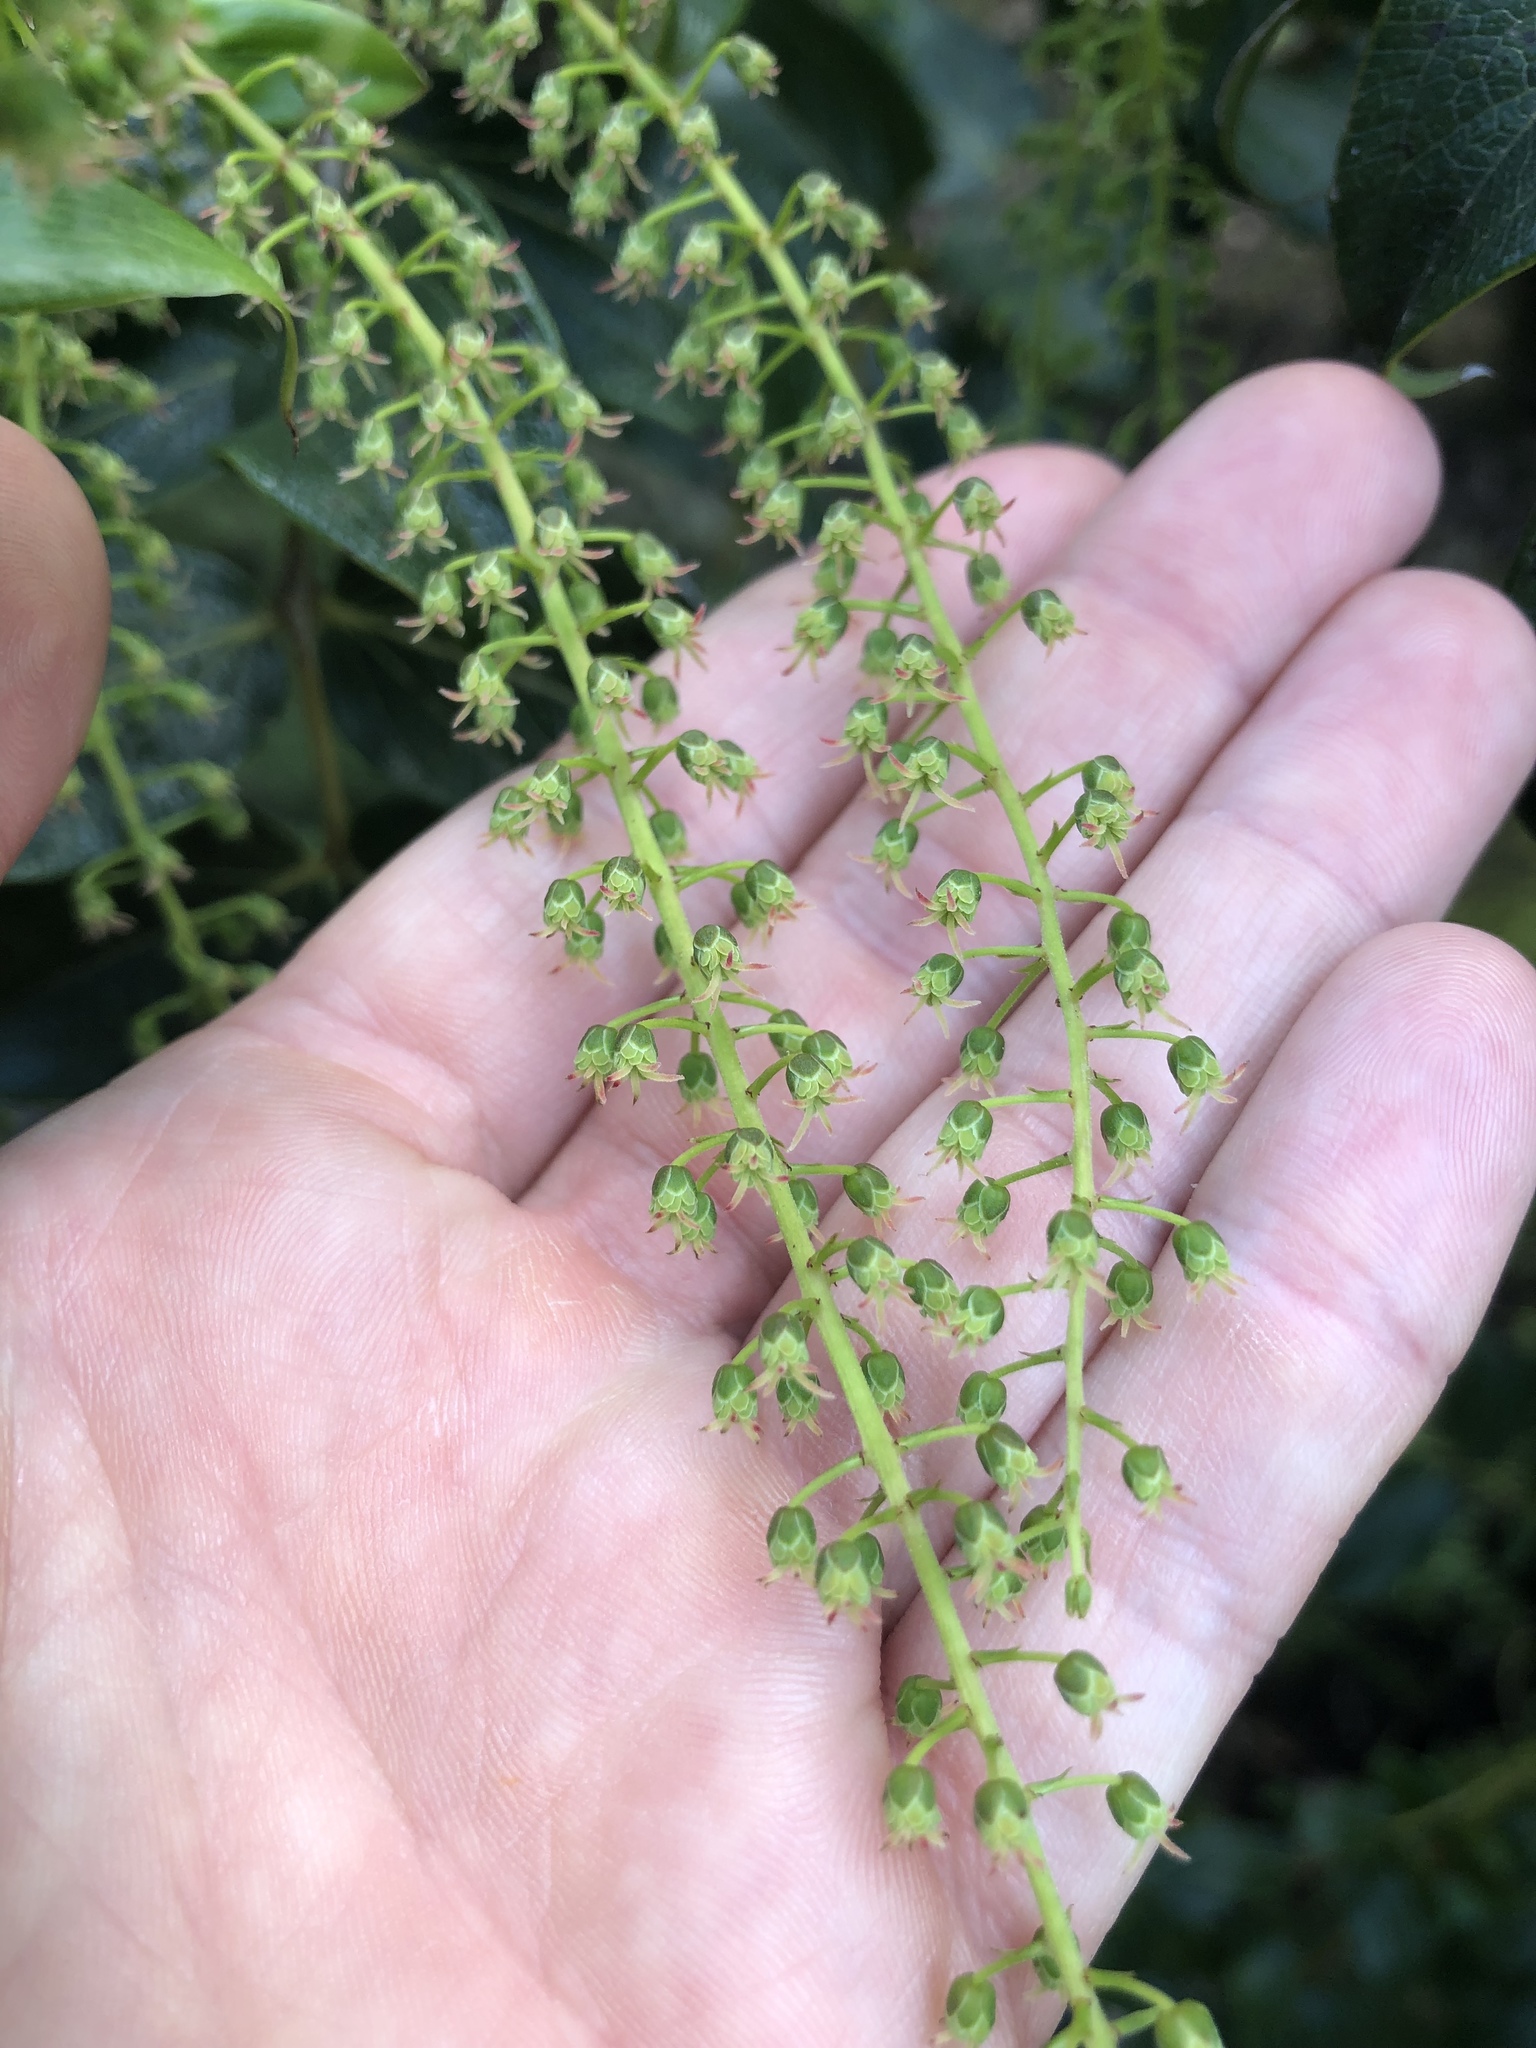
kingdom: Plantae
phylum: Tracheophyta
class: Magnoliopsida
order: Cucurbitales
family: Coriariaceae
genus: Coriaria
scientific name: Coriaria arborea
